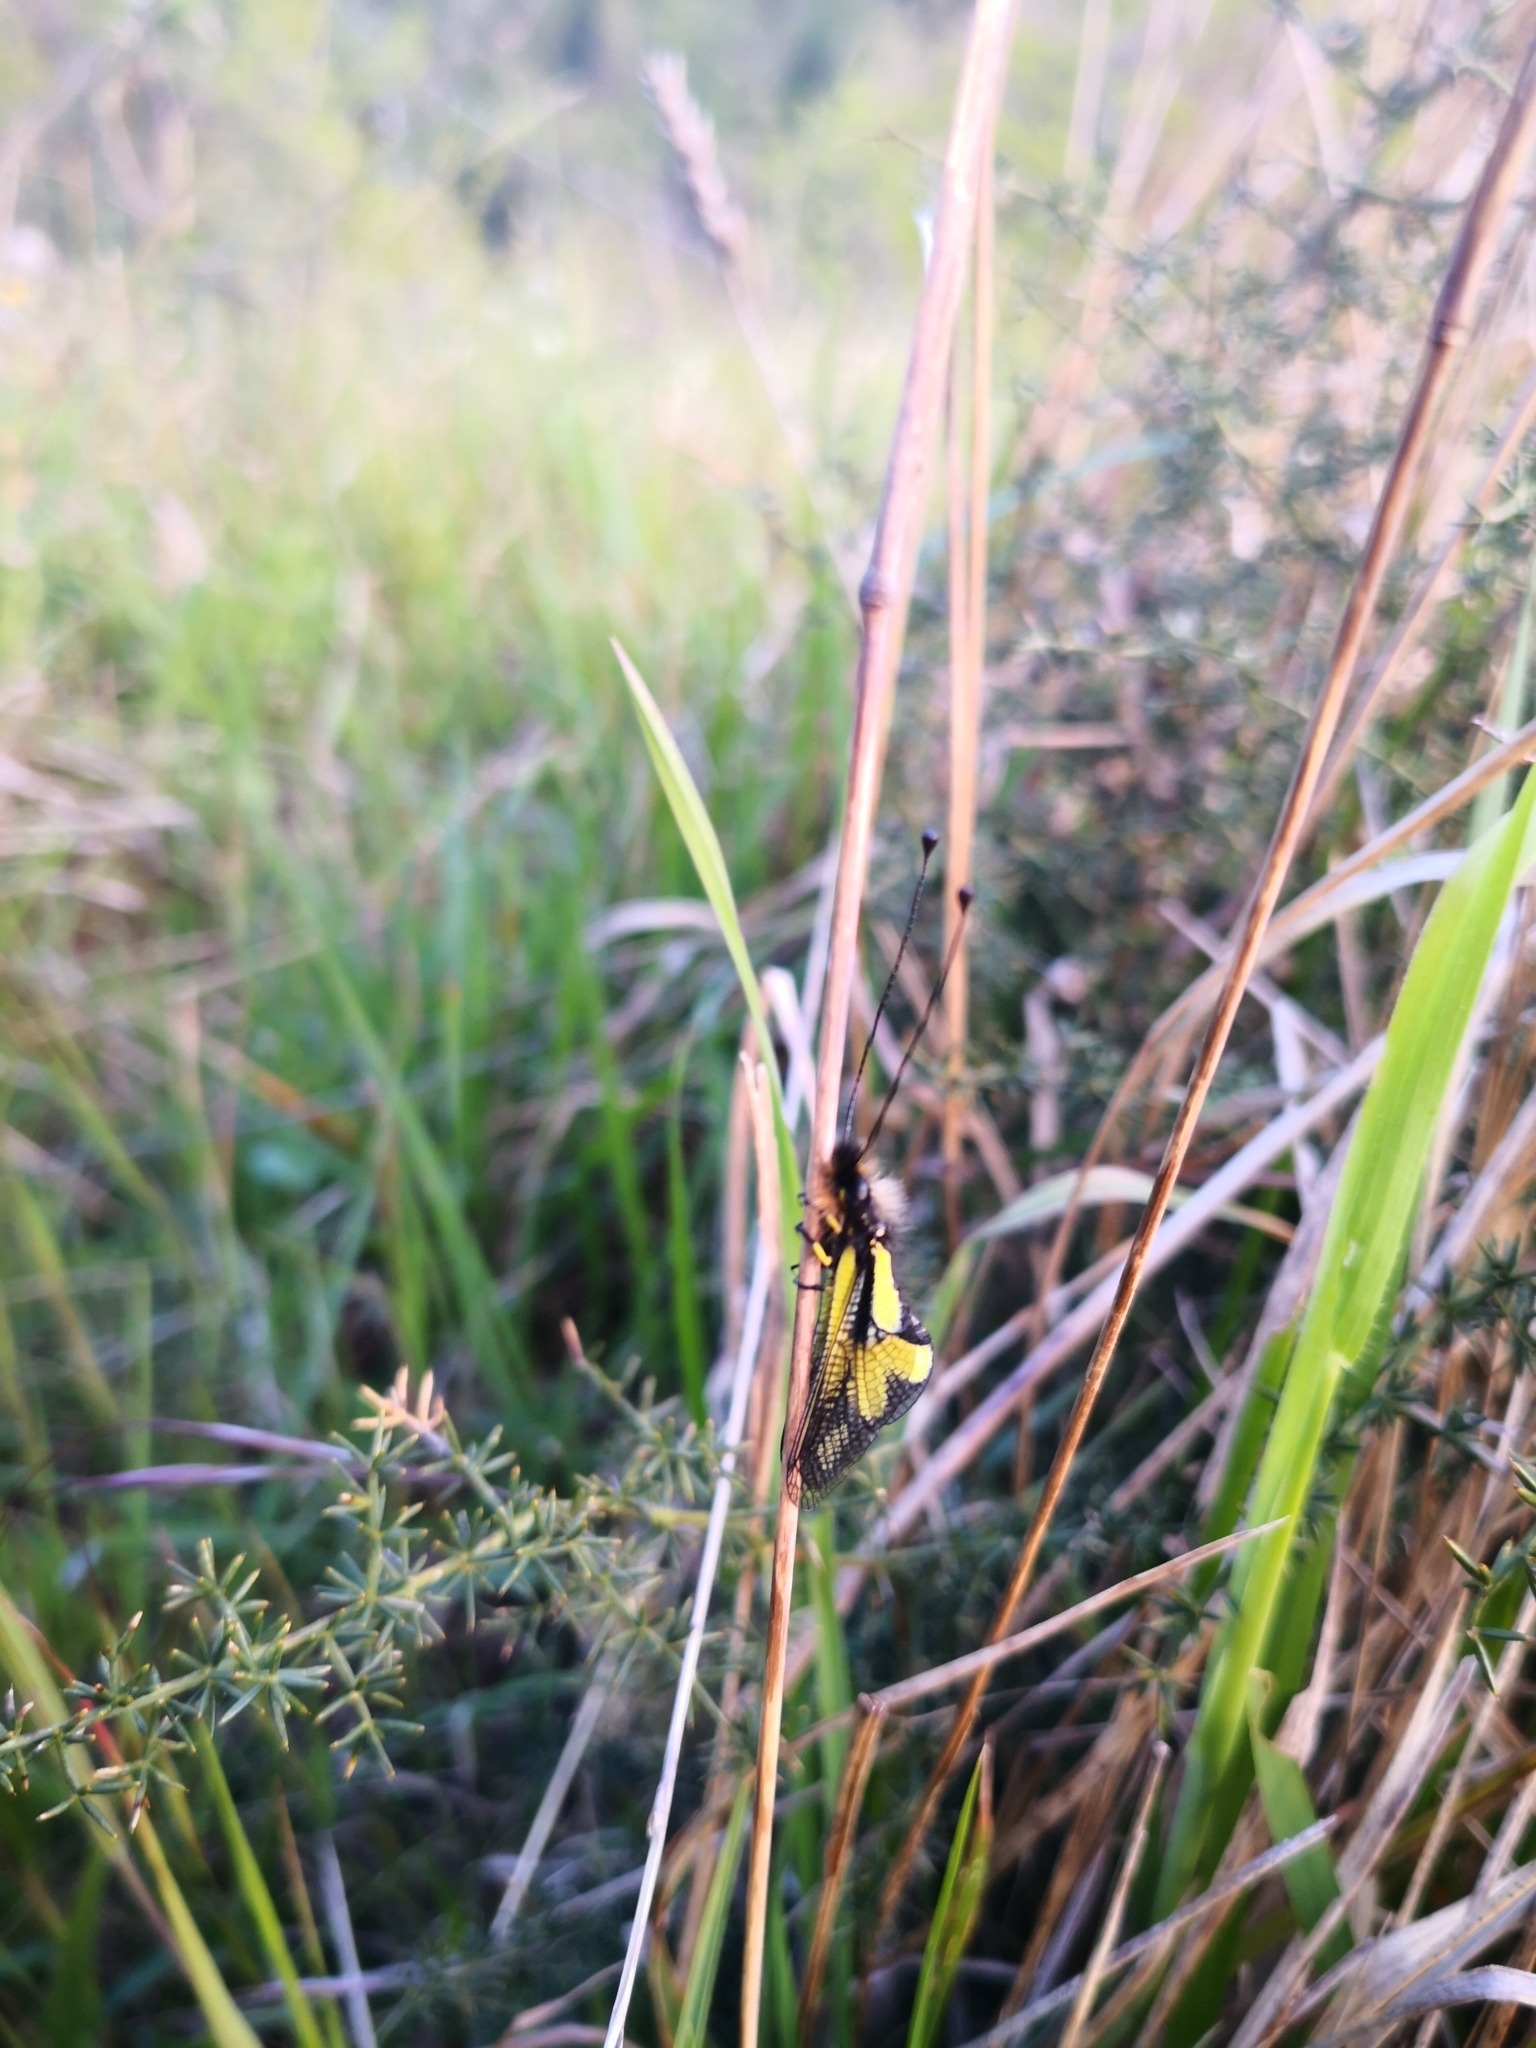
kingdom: Animalia
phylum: Arthropoda
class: Insecta
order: Neuroptera
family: Ascalaphidae
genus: Libelloides
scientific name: Libelloides coccajus
